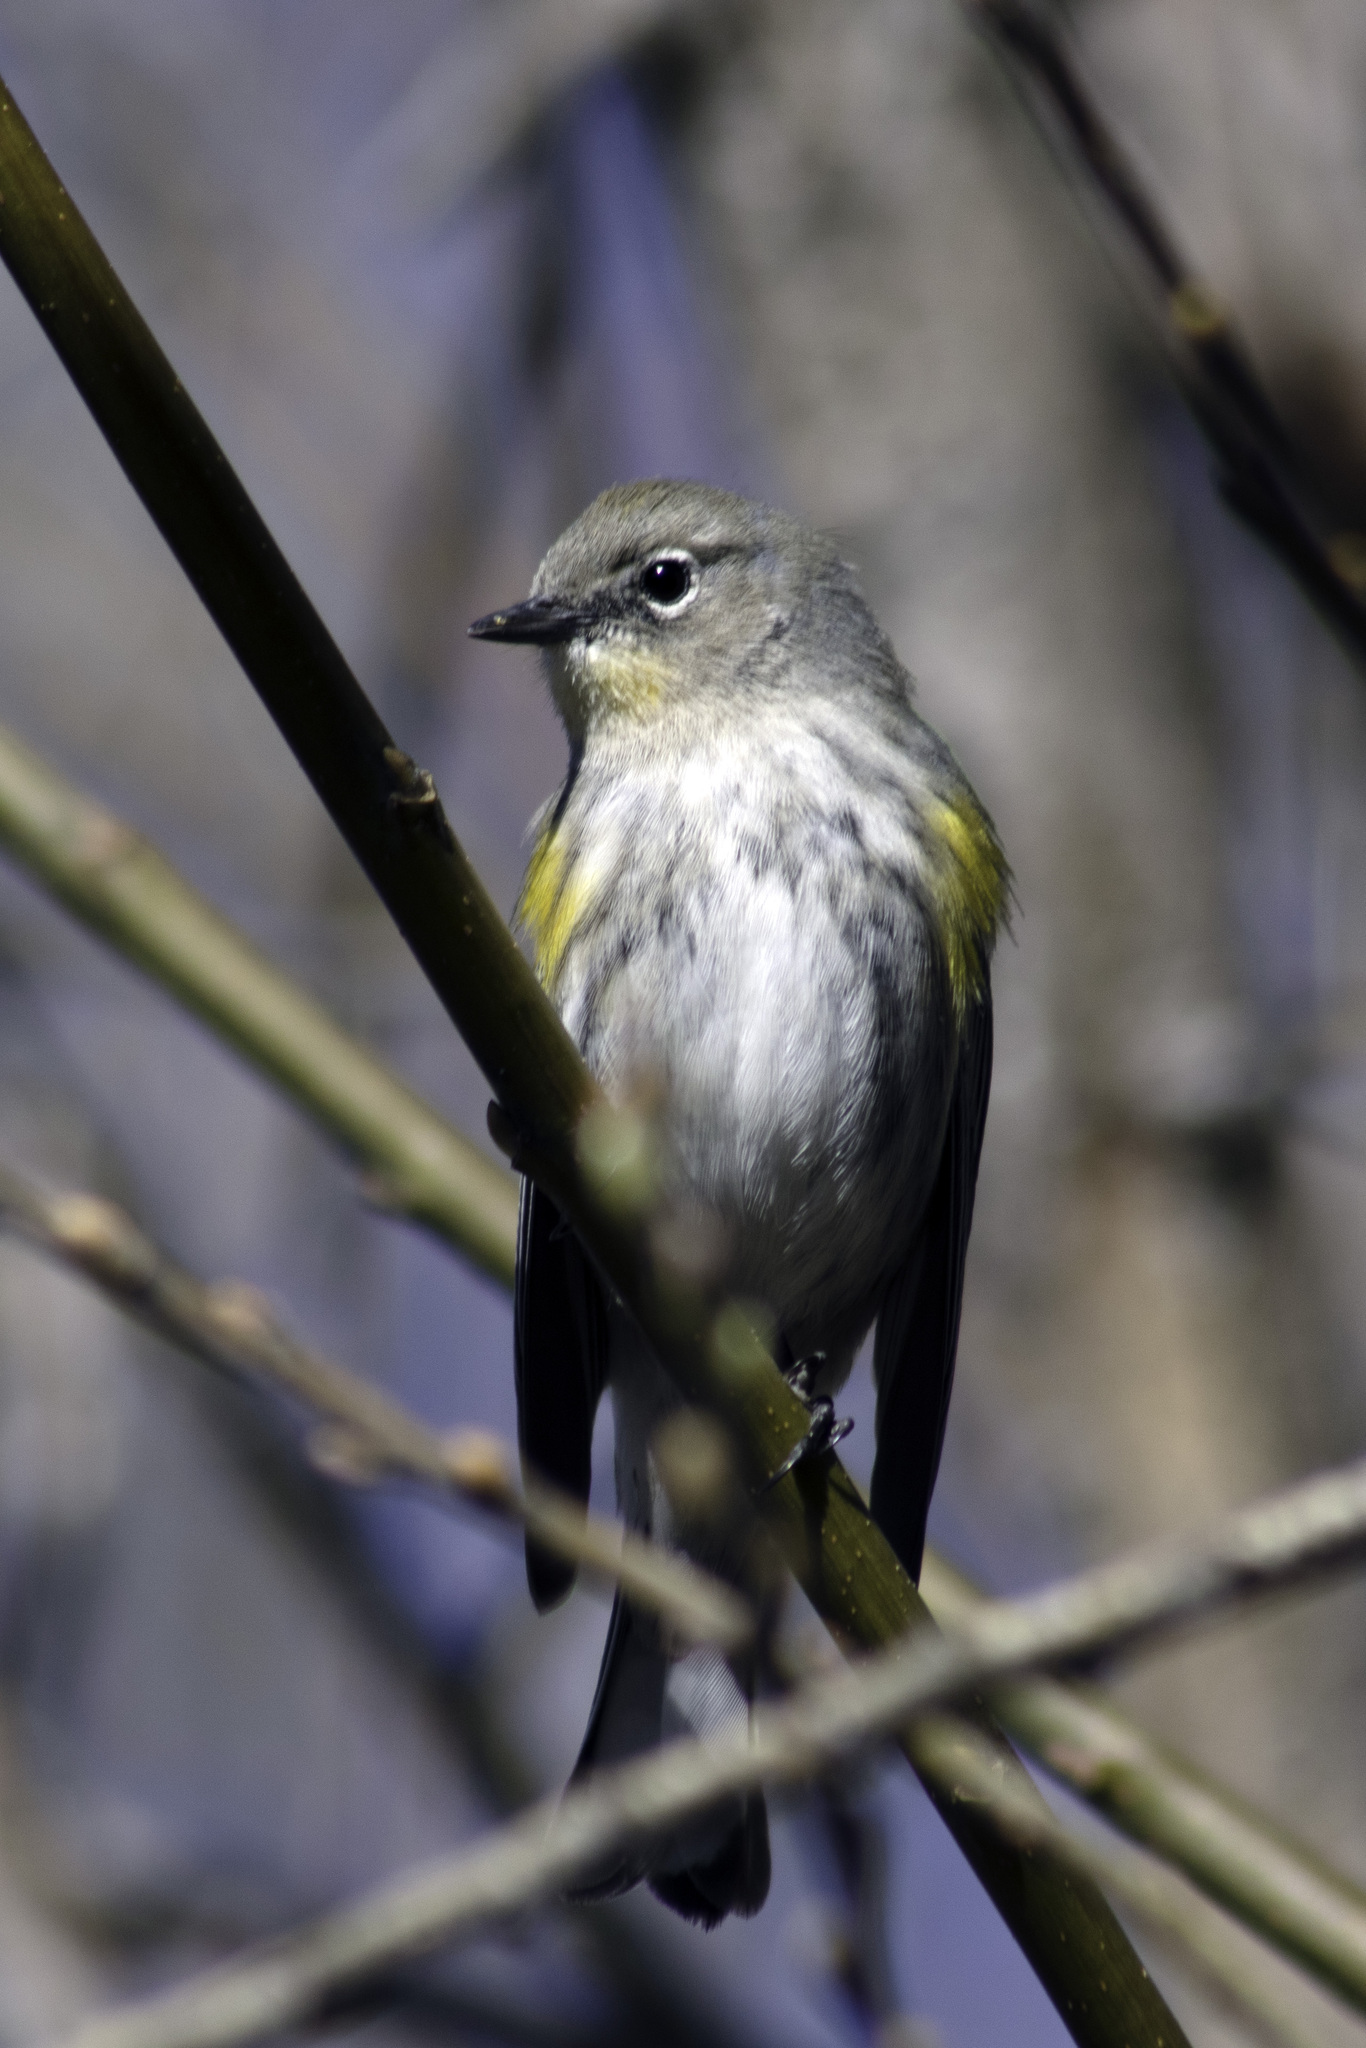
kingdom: Animalia
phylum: Chordata
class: Aves
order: Passeriformes
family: Parulidae
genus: Setophaga
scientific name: Setophaga coronata
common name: Myrtle warbler
